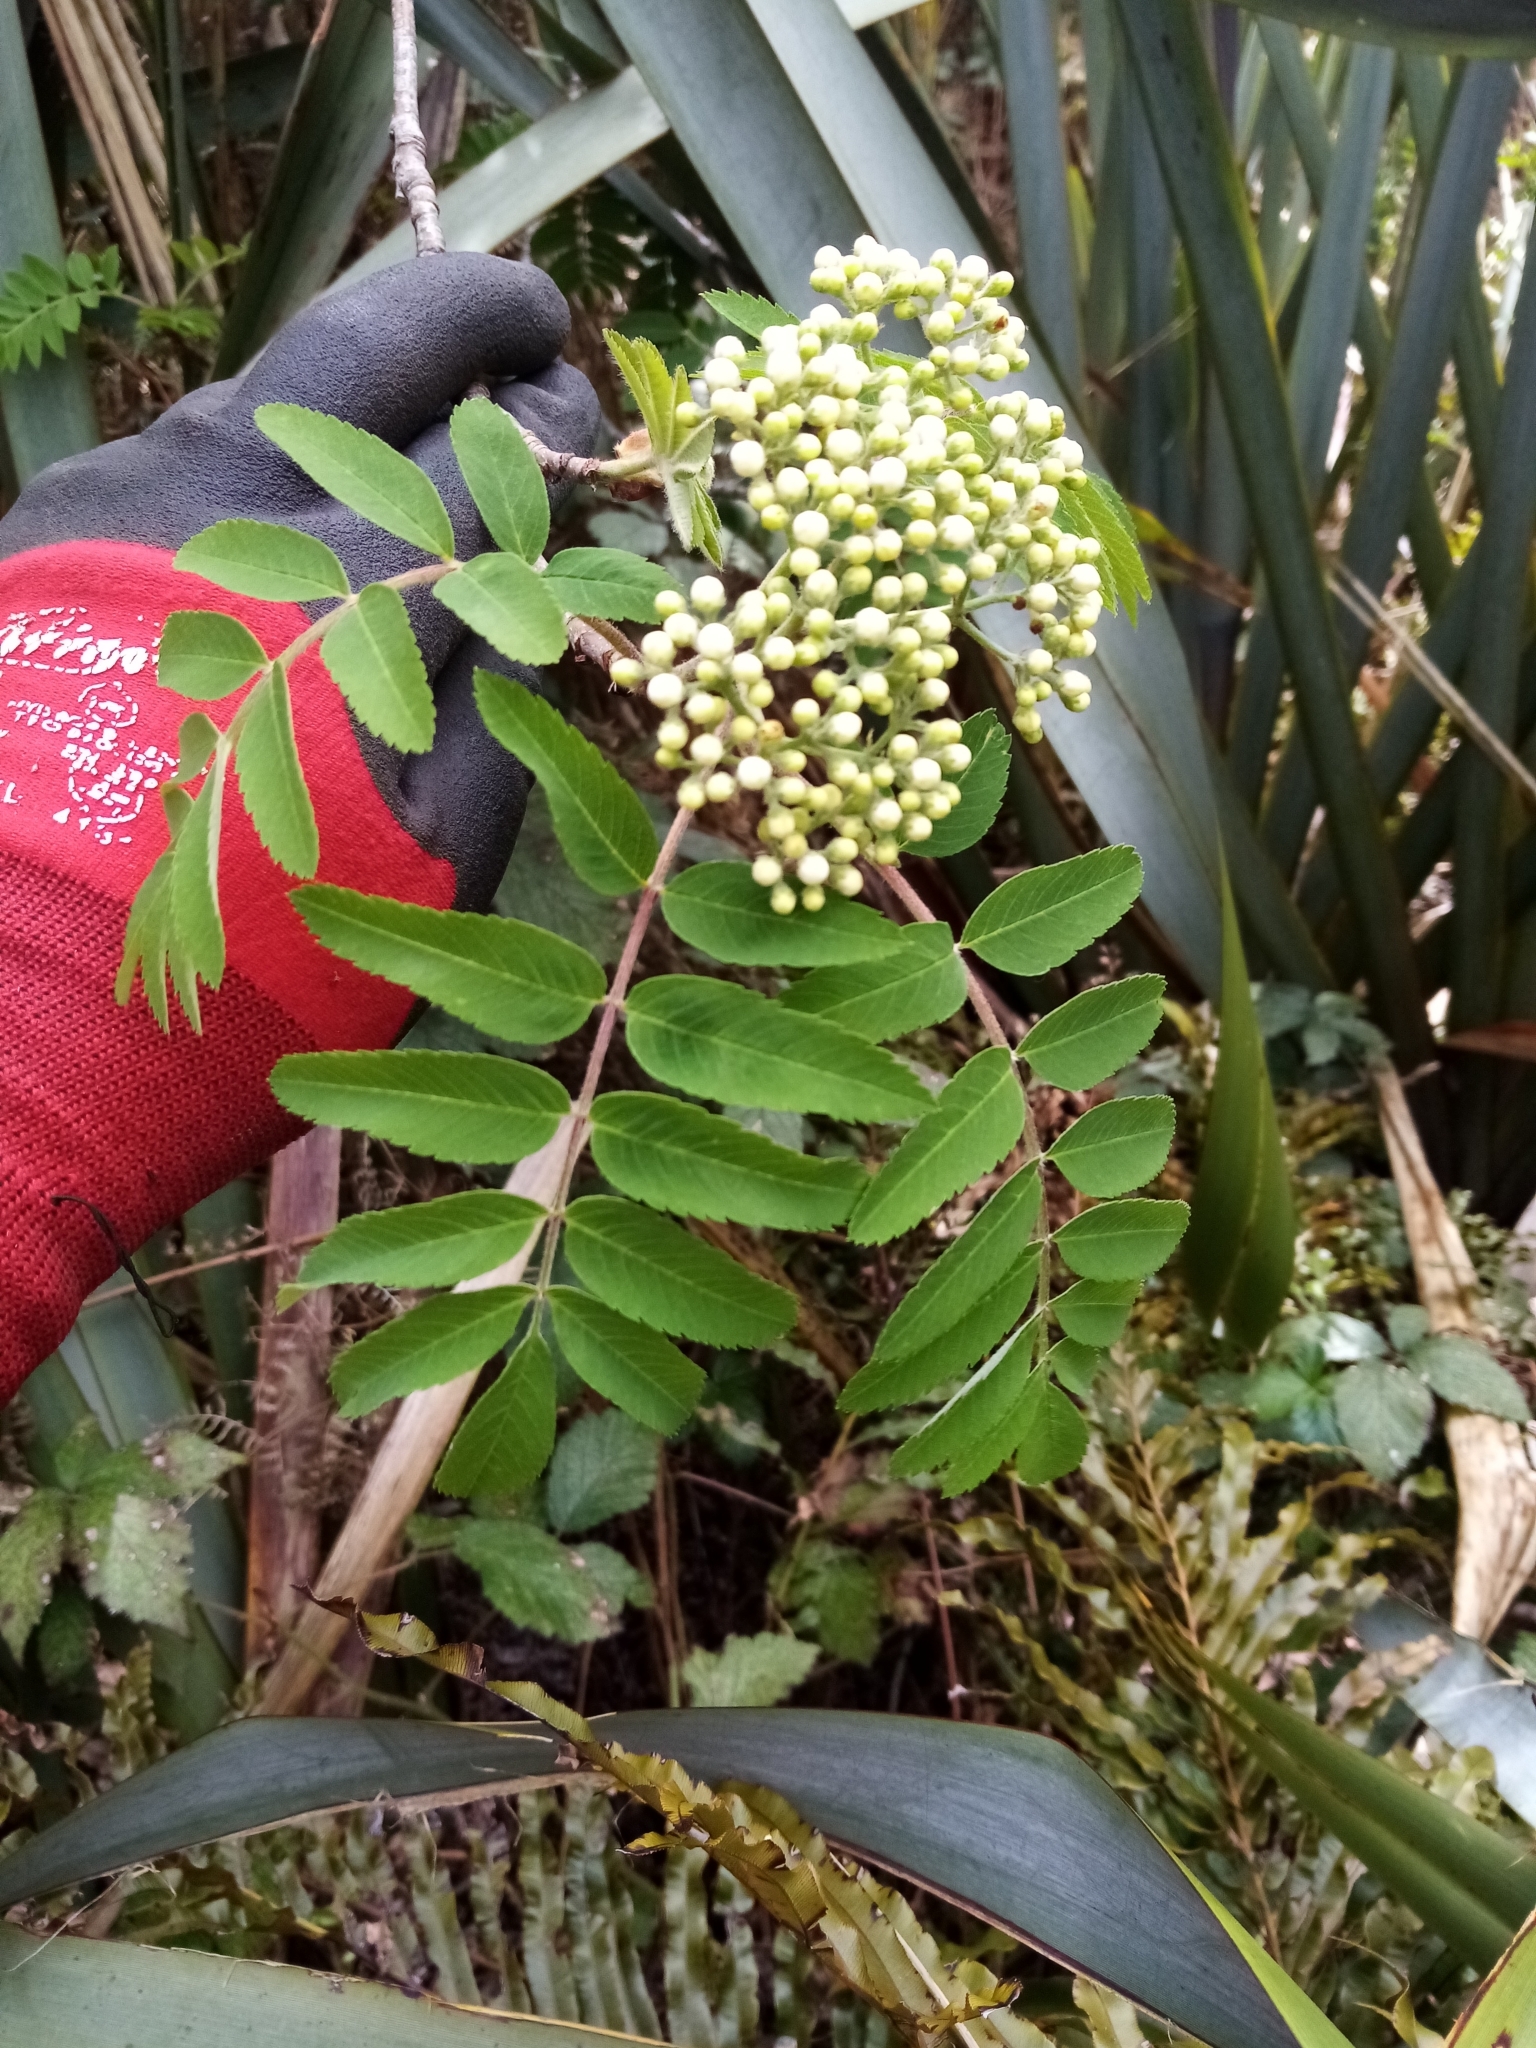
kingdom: Plantae
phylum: Tracheophyta
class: Magnoliopsida
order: Rosales
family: Rosaceae
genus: Sorbus
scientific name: Sorbus aucuparia
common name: Rowan
